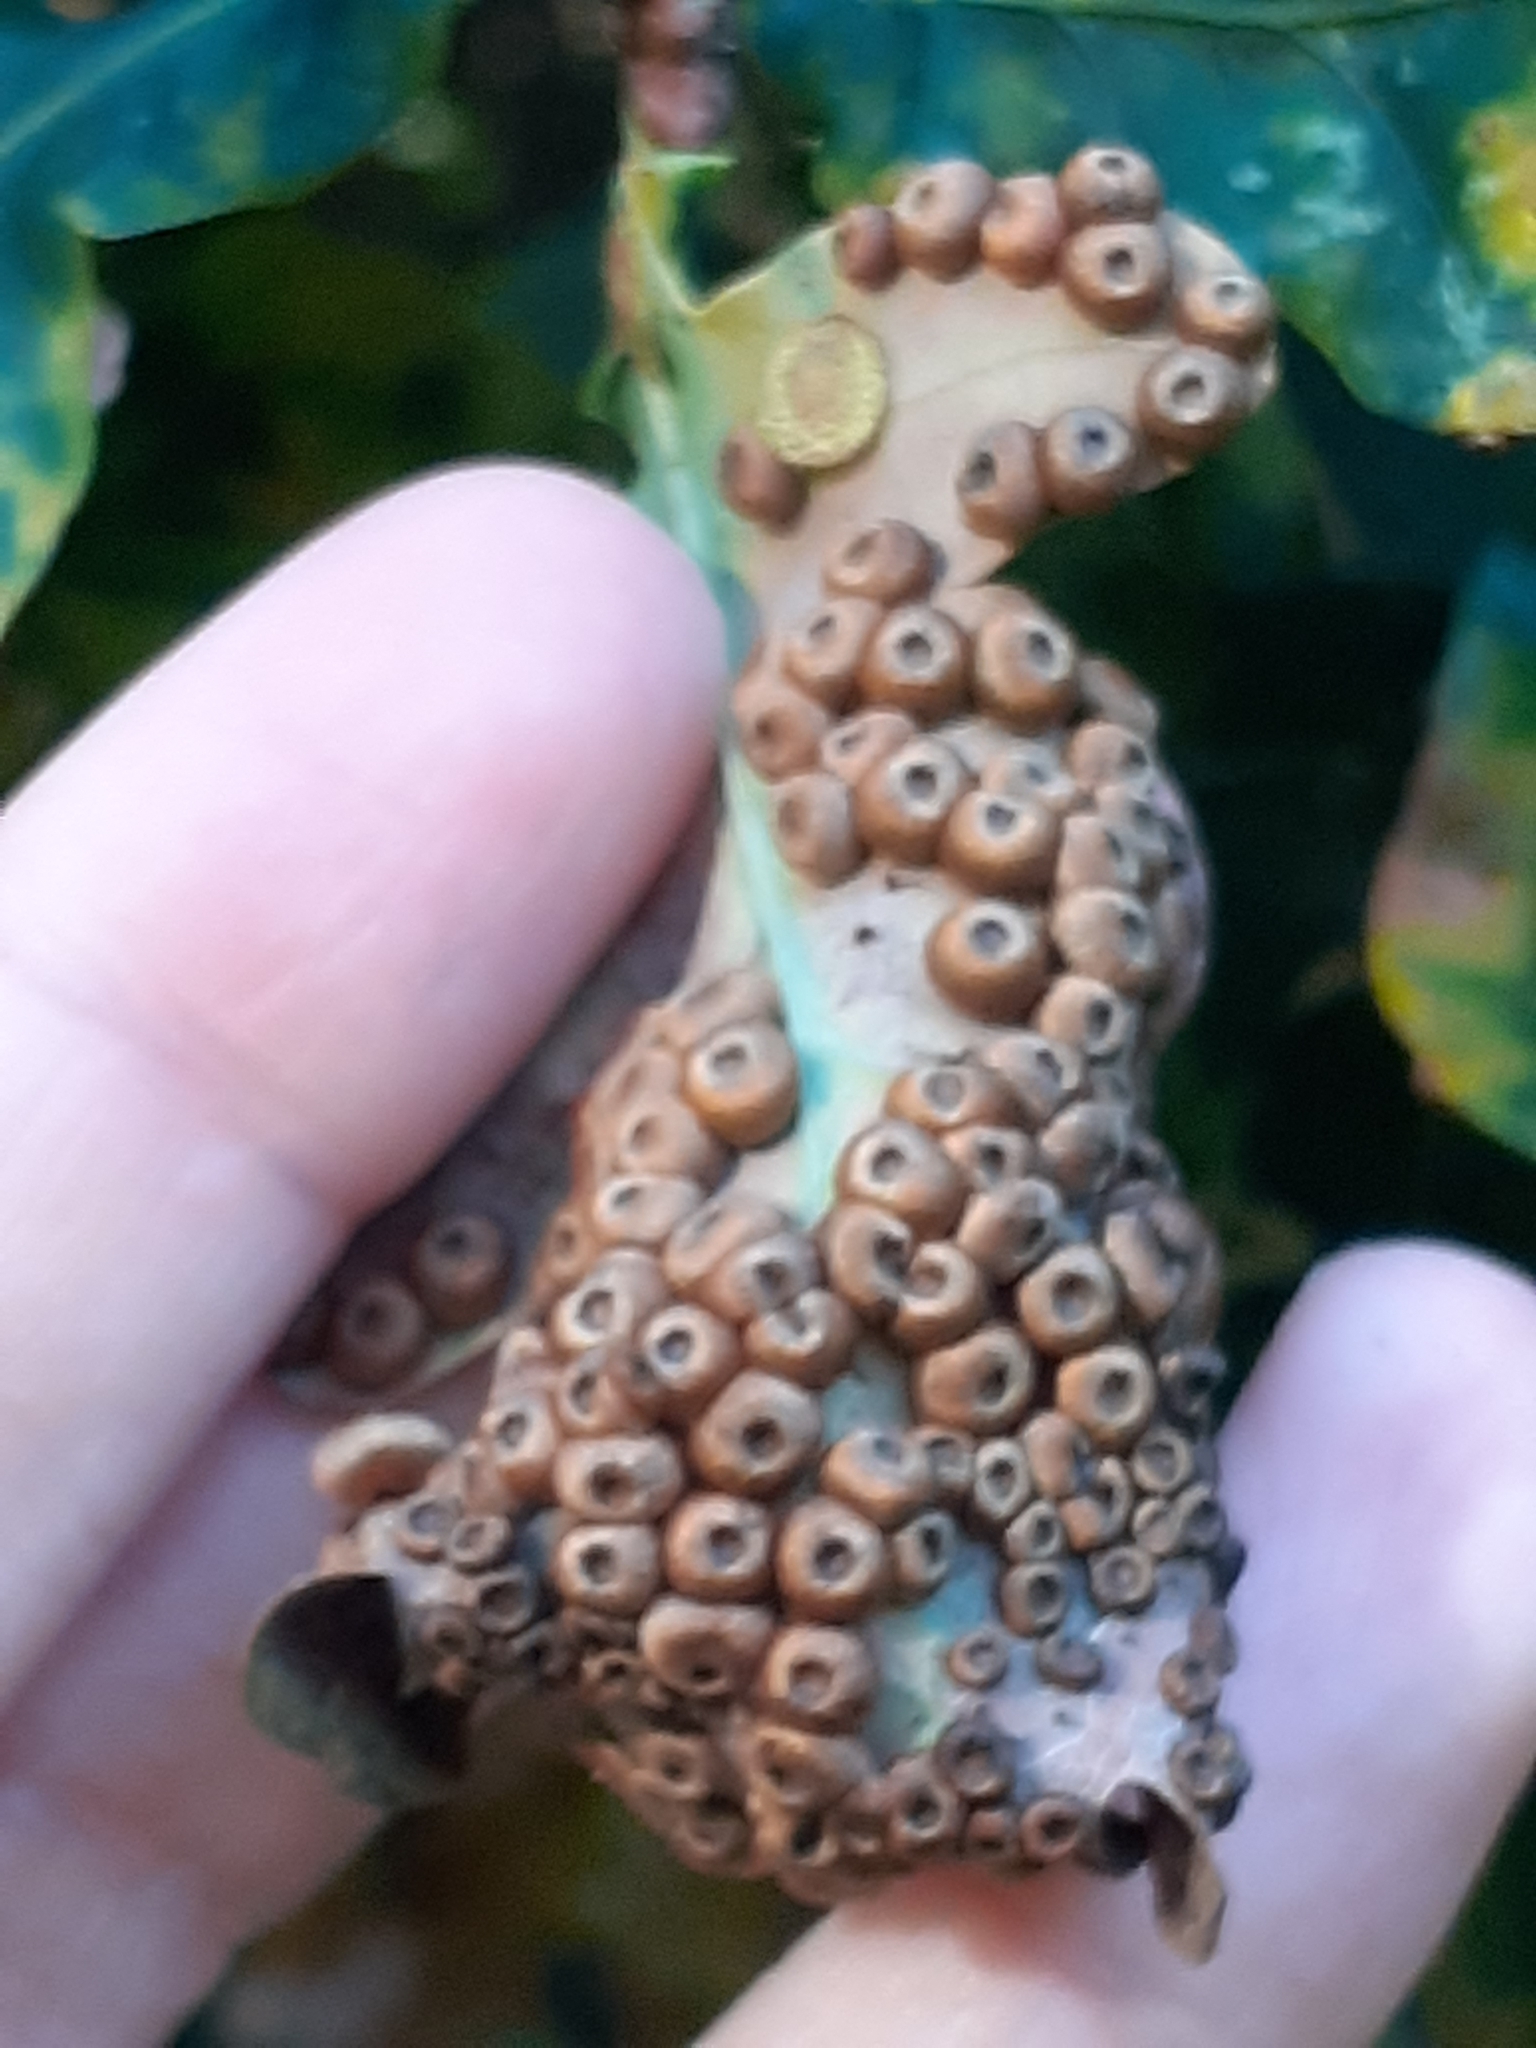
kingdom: Animalia
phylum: Arthropoda
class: Insecta
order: Hymenoptera
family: Cynipidae
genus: Neuroterus
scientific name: Neuroterus numismalis
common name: Silk-button spangle gall
